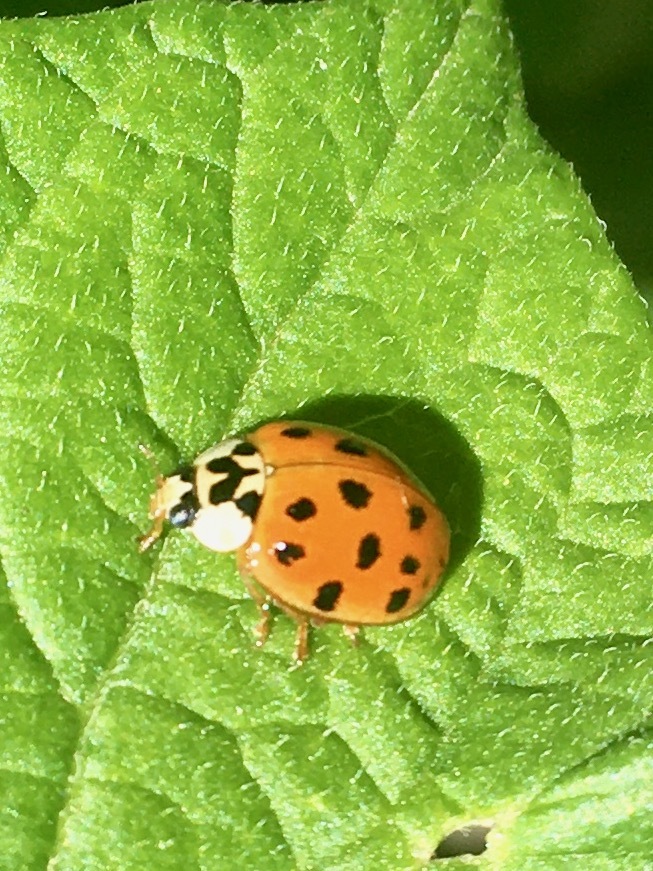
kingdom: Animalia
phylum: Arthropoda
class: Insecta
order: Coleoptera
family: Coccinellidae
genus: Harmonia
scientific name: Harmonia axyridis
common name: Harlequin ladybird
